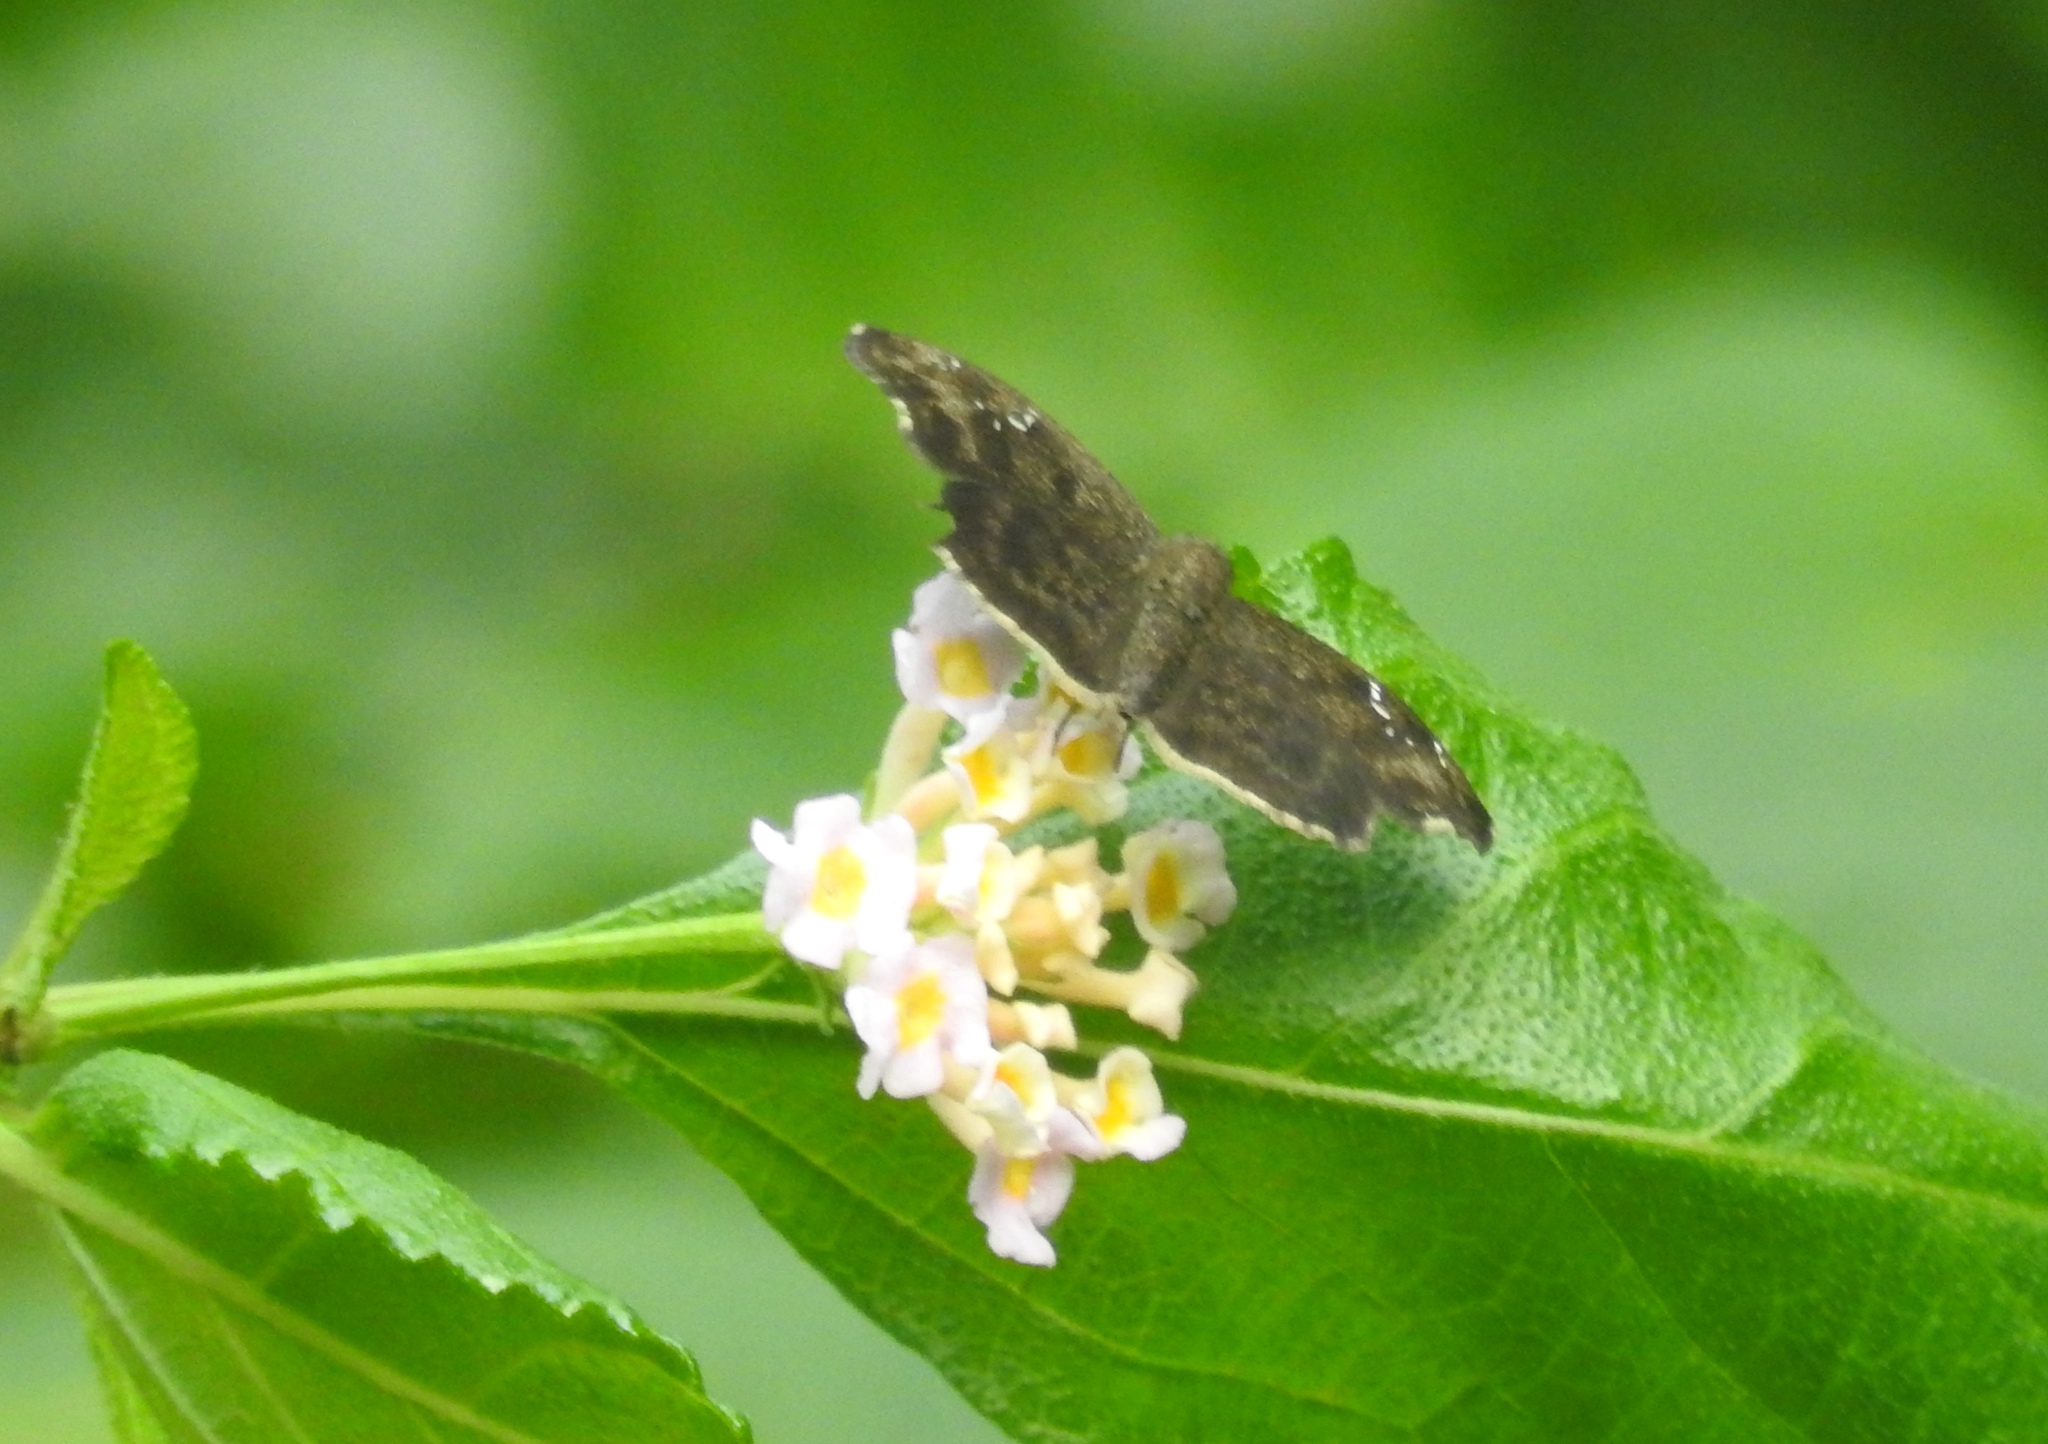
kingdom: Animalia
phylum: Arthropoda
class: Insecta
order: Lepidoptera
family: Hesperiidae
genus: Sarangesa
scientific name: Sarangesa dasahara
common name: Common small flat
